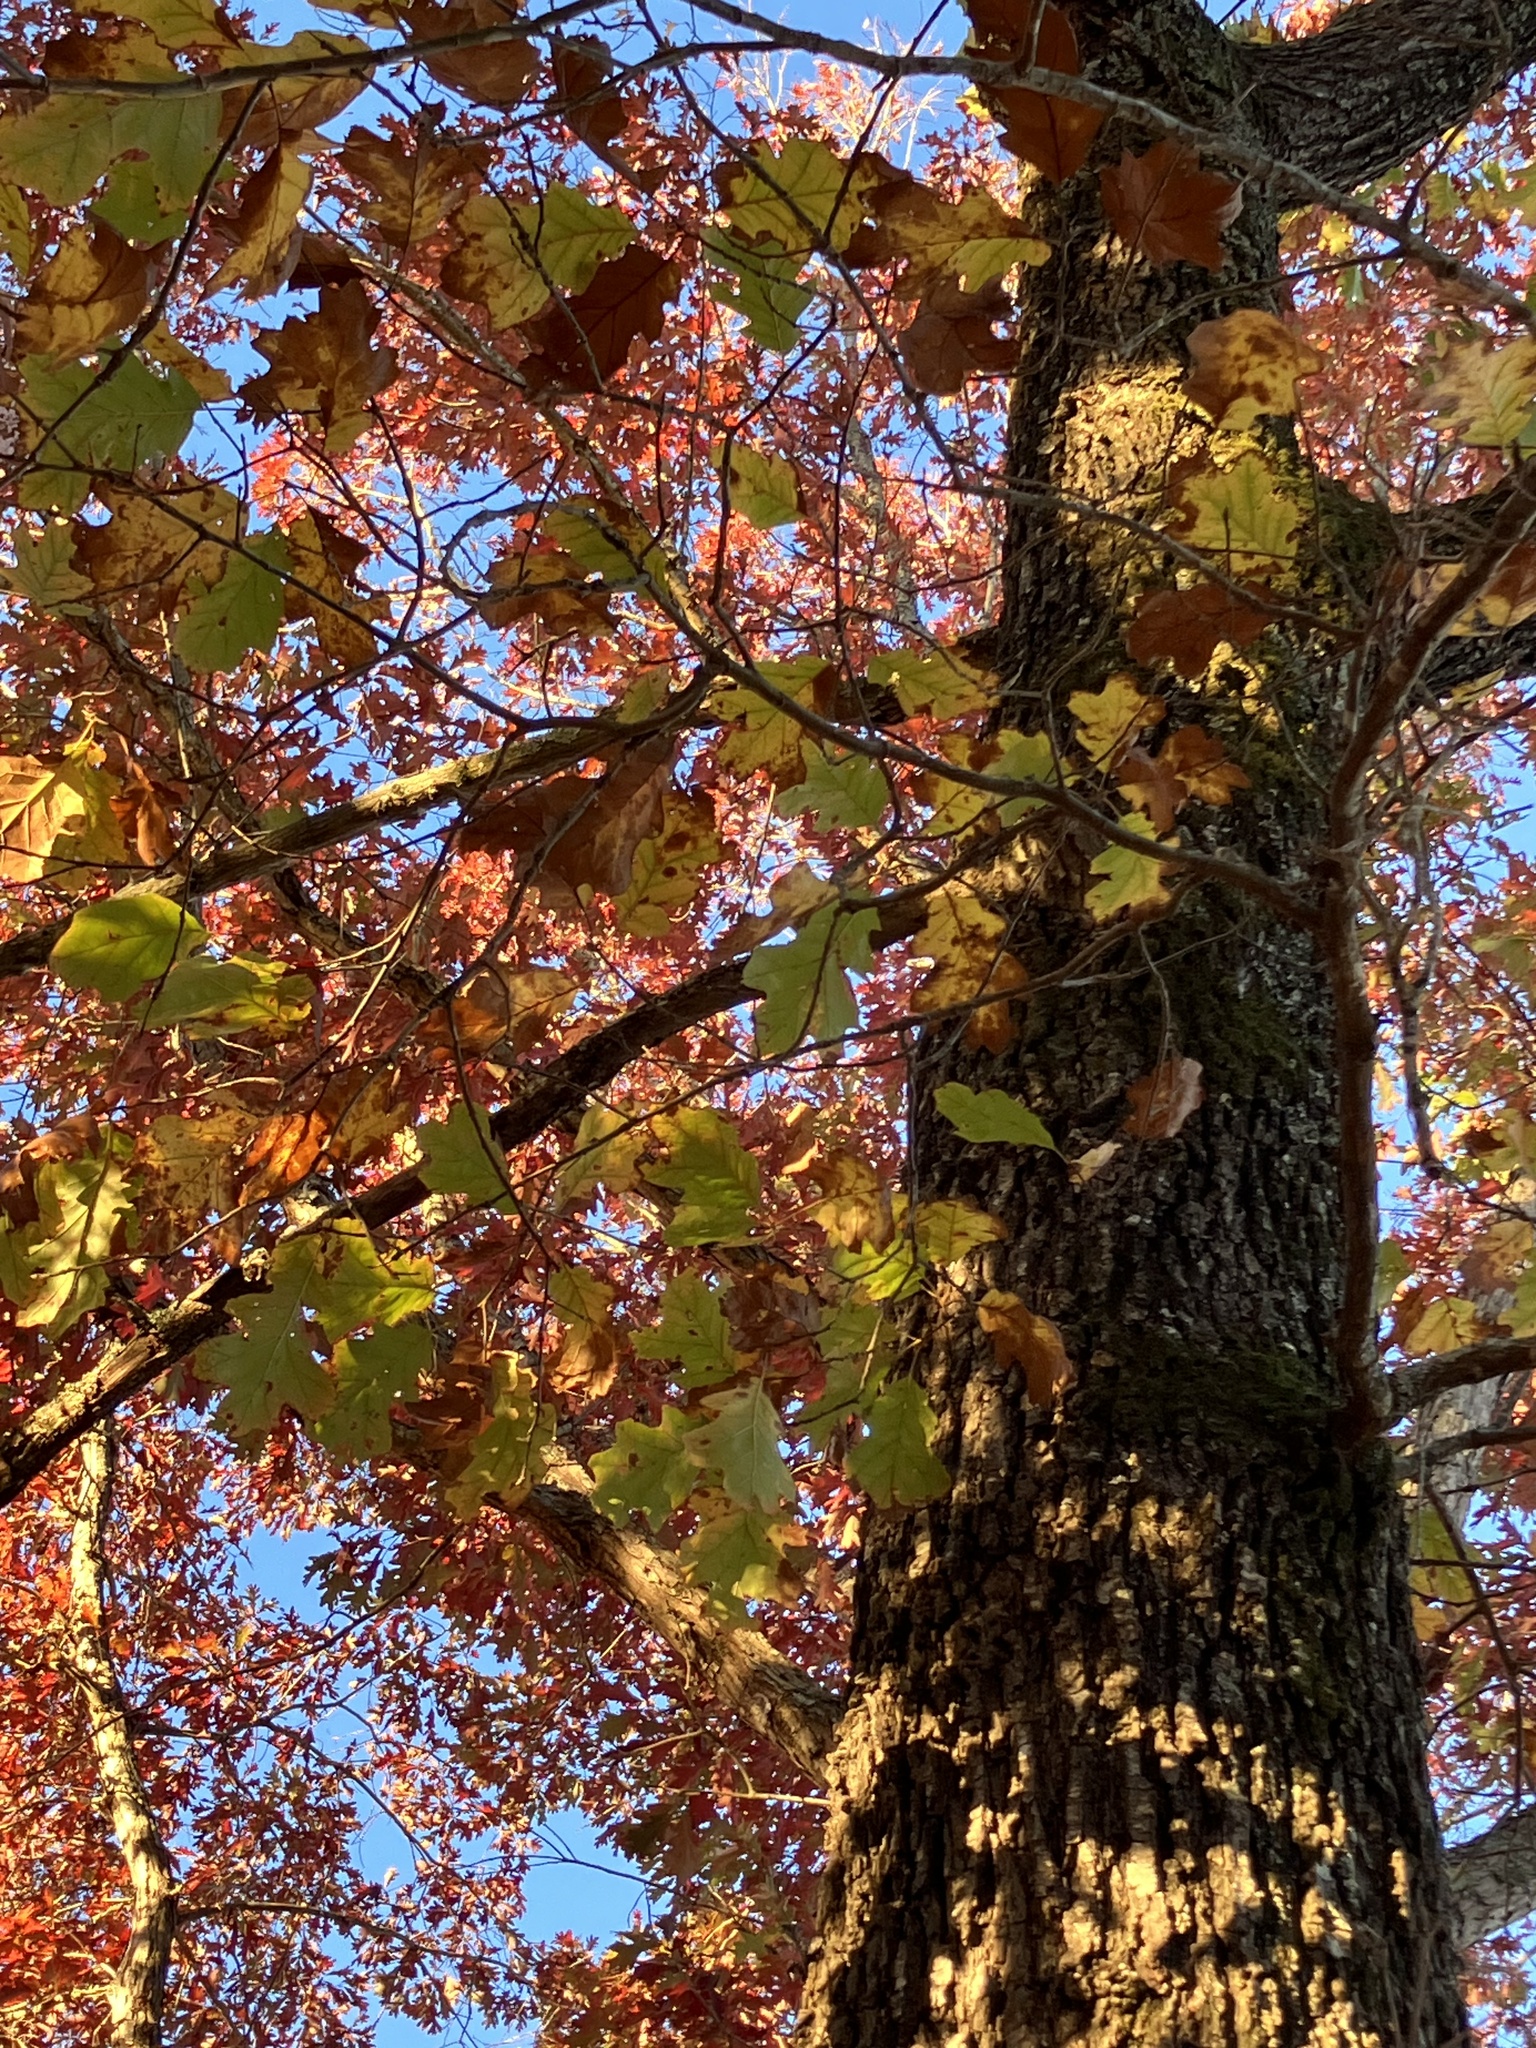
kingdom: Plantae
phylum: Tracheophyta
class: Magnoliopsida
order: Fagales
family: Fagaceae
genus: Quercus
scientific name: Quercus rubra
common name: Red oak
